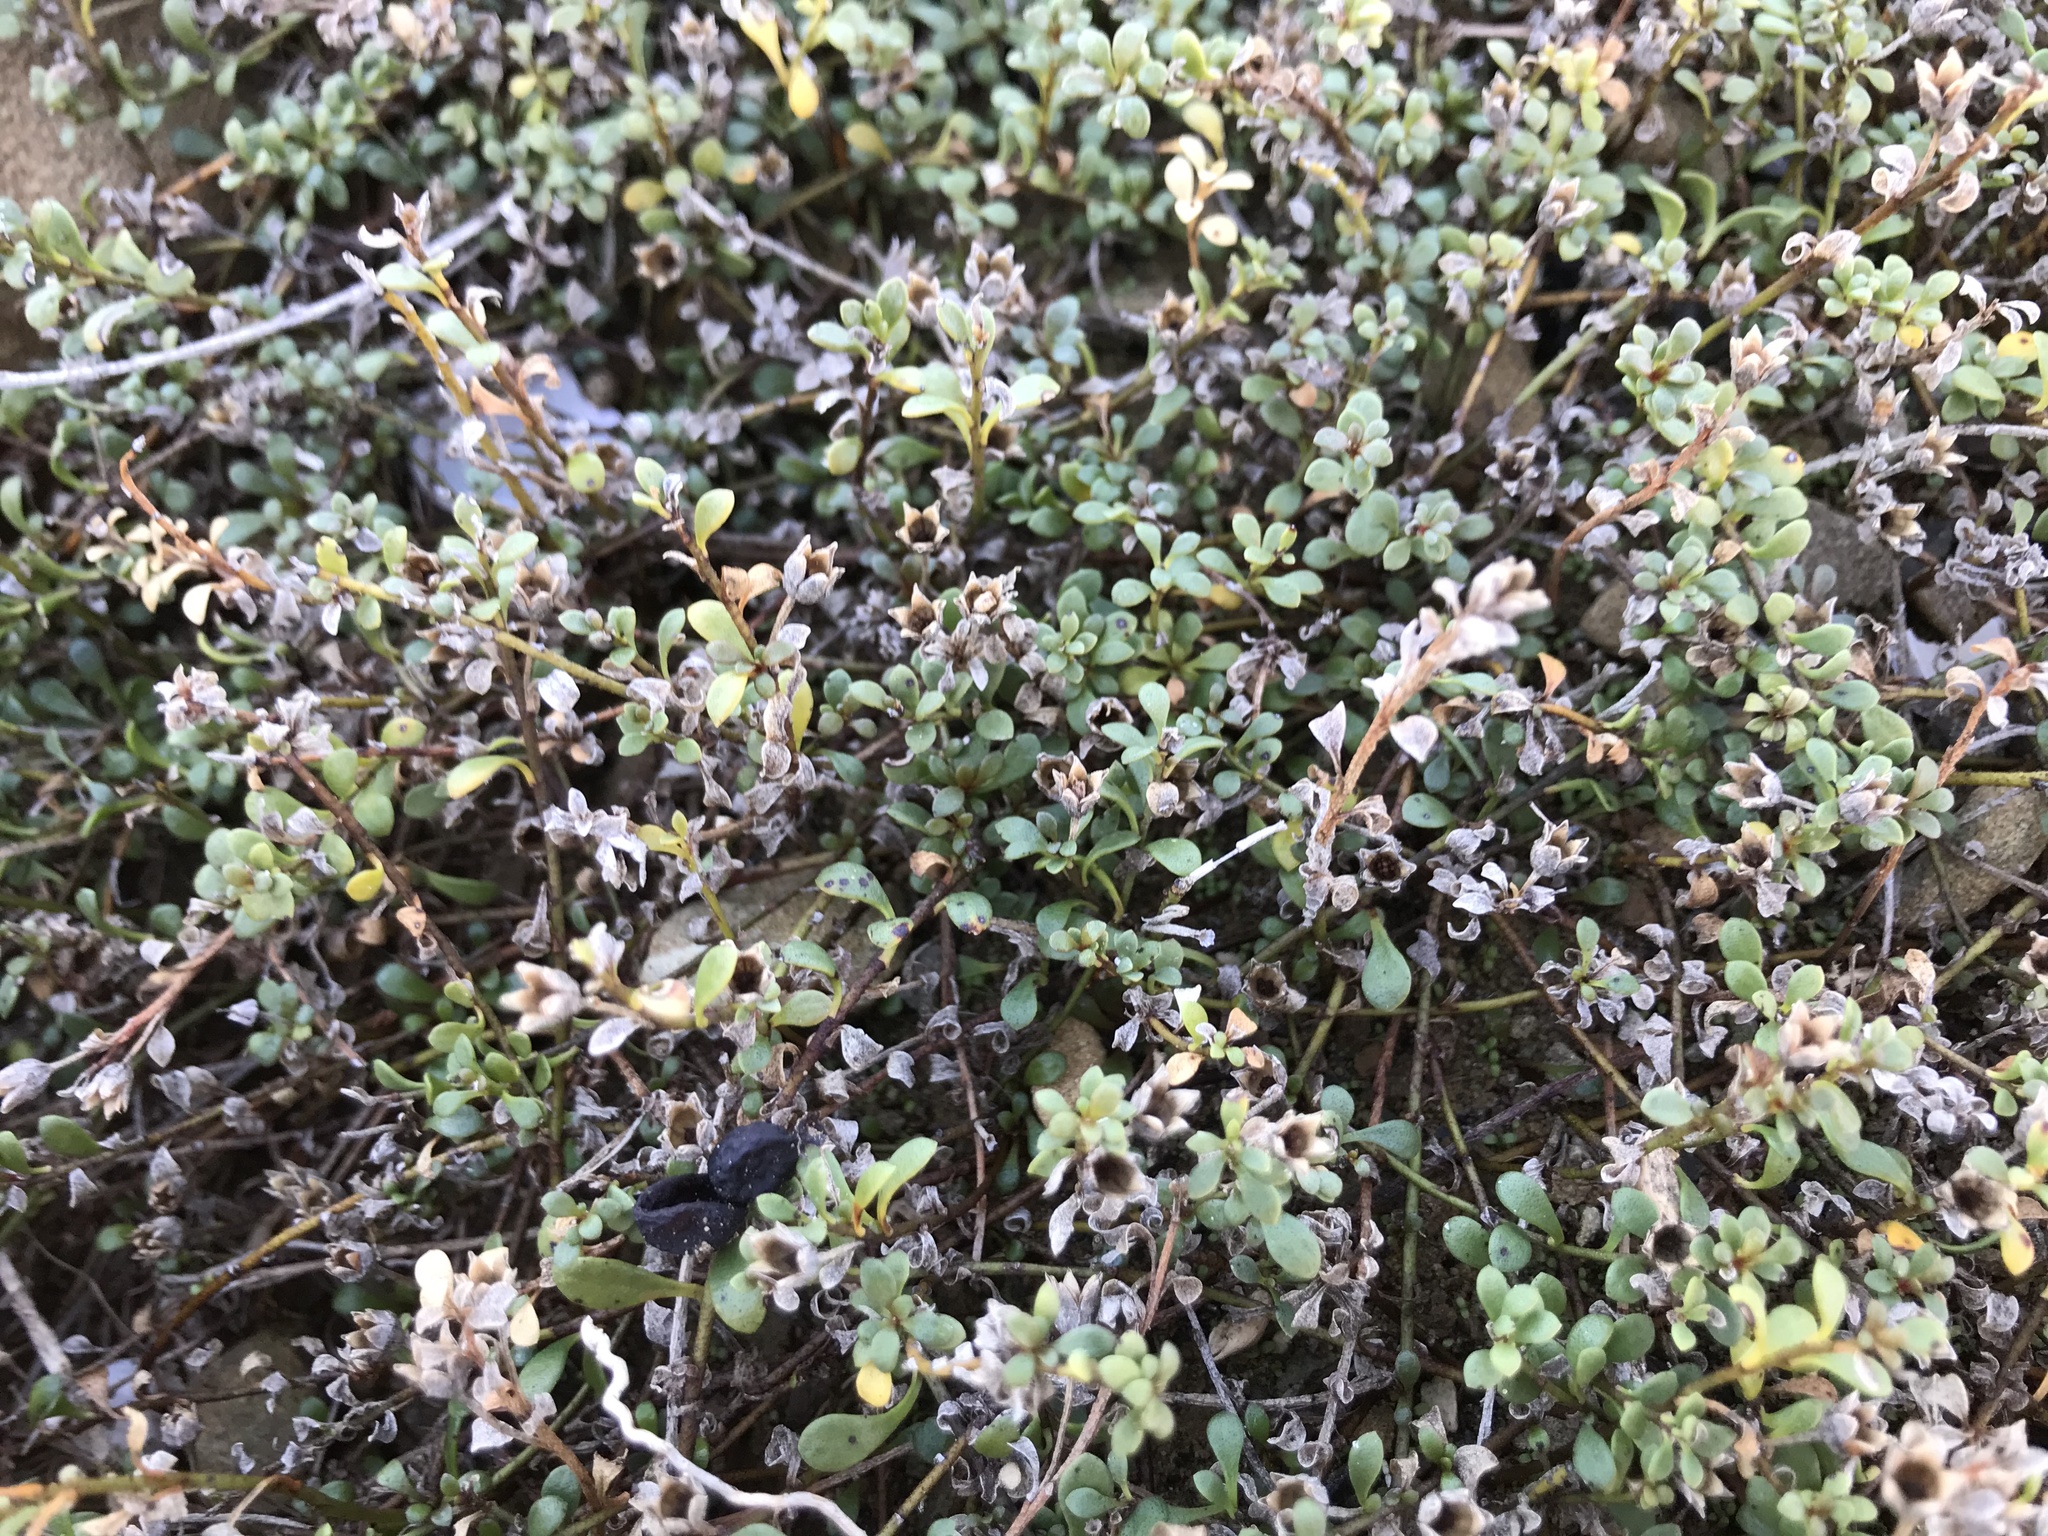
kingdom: Plantae
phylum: Tracheophyta
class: Magnoliopsida
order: Ericales
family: Primulaceae
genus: Samolus
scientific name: Samolus repens
